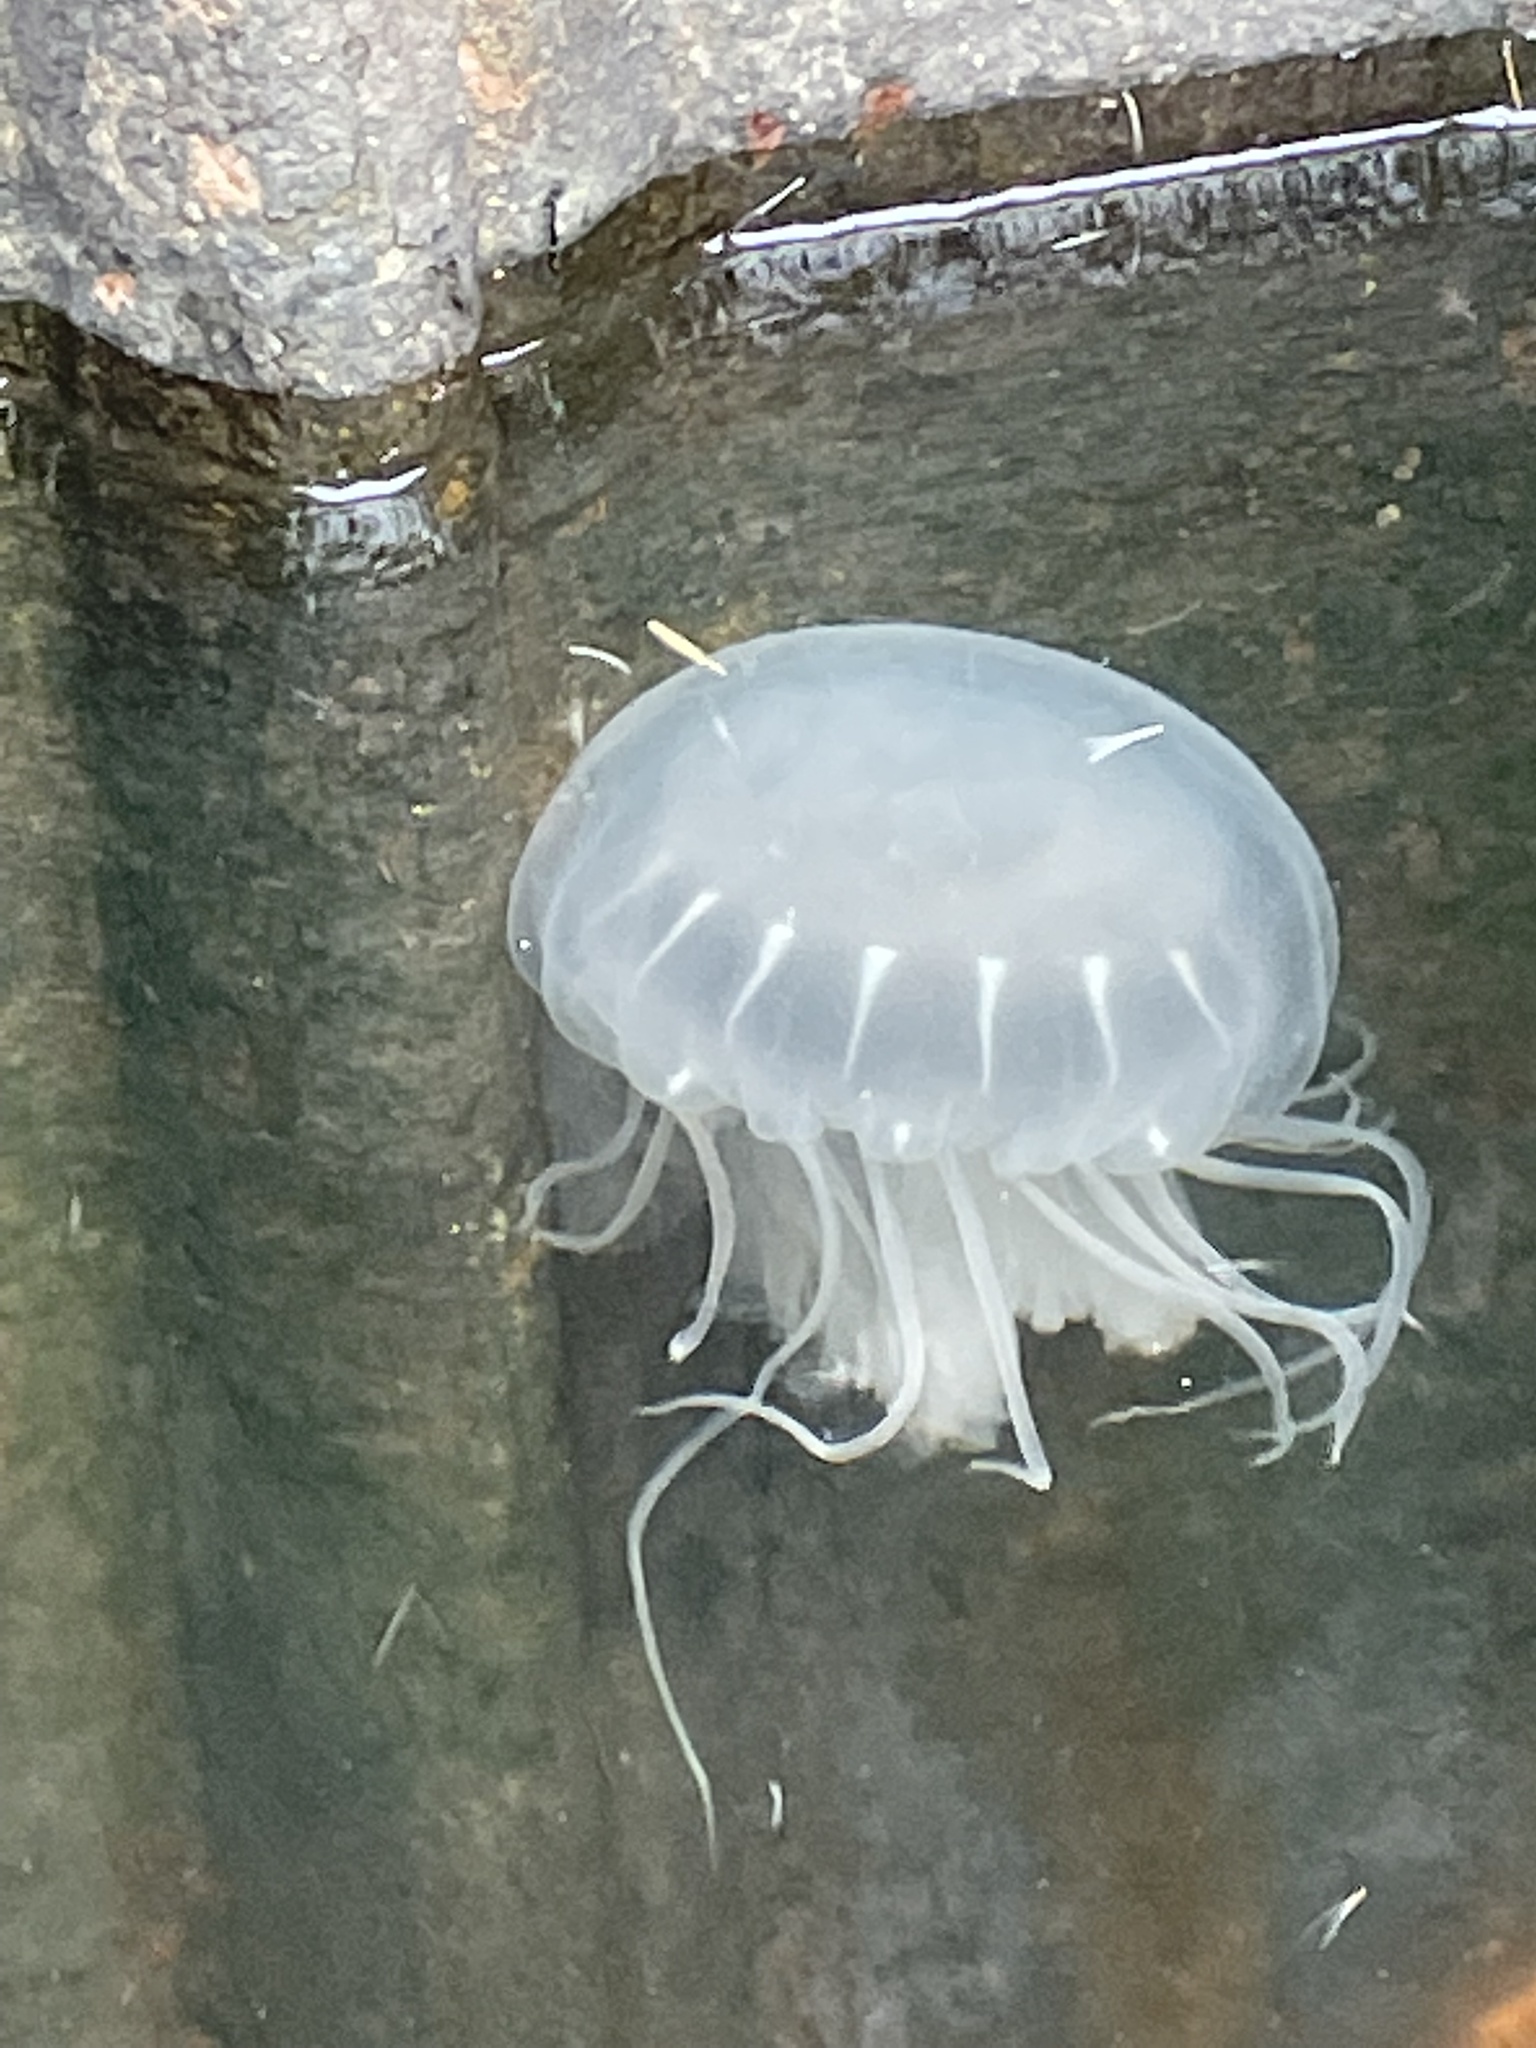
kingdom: Animalia
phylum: Cnidaria
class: Scyphozoa
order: Semaeostomeae
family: Pelagiidae
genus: Chrysaora
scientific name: Chrysaora chesapeakei
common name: Bay nettle
